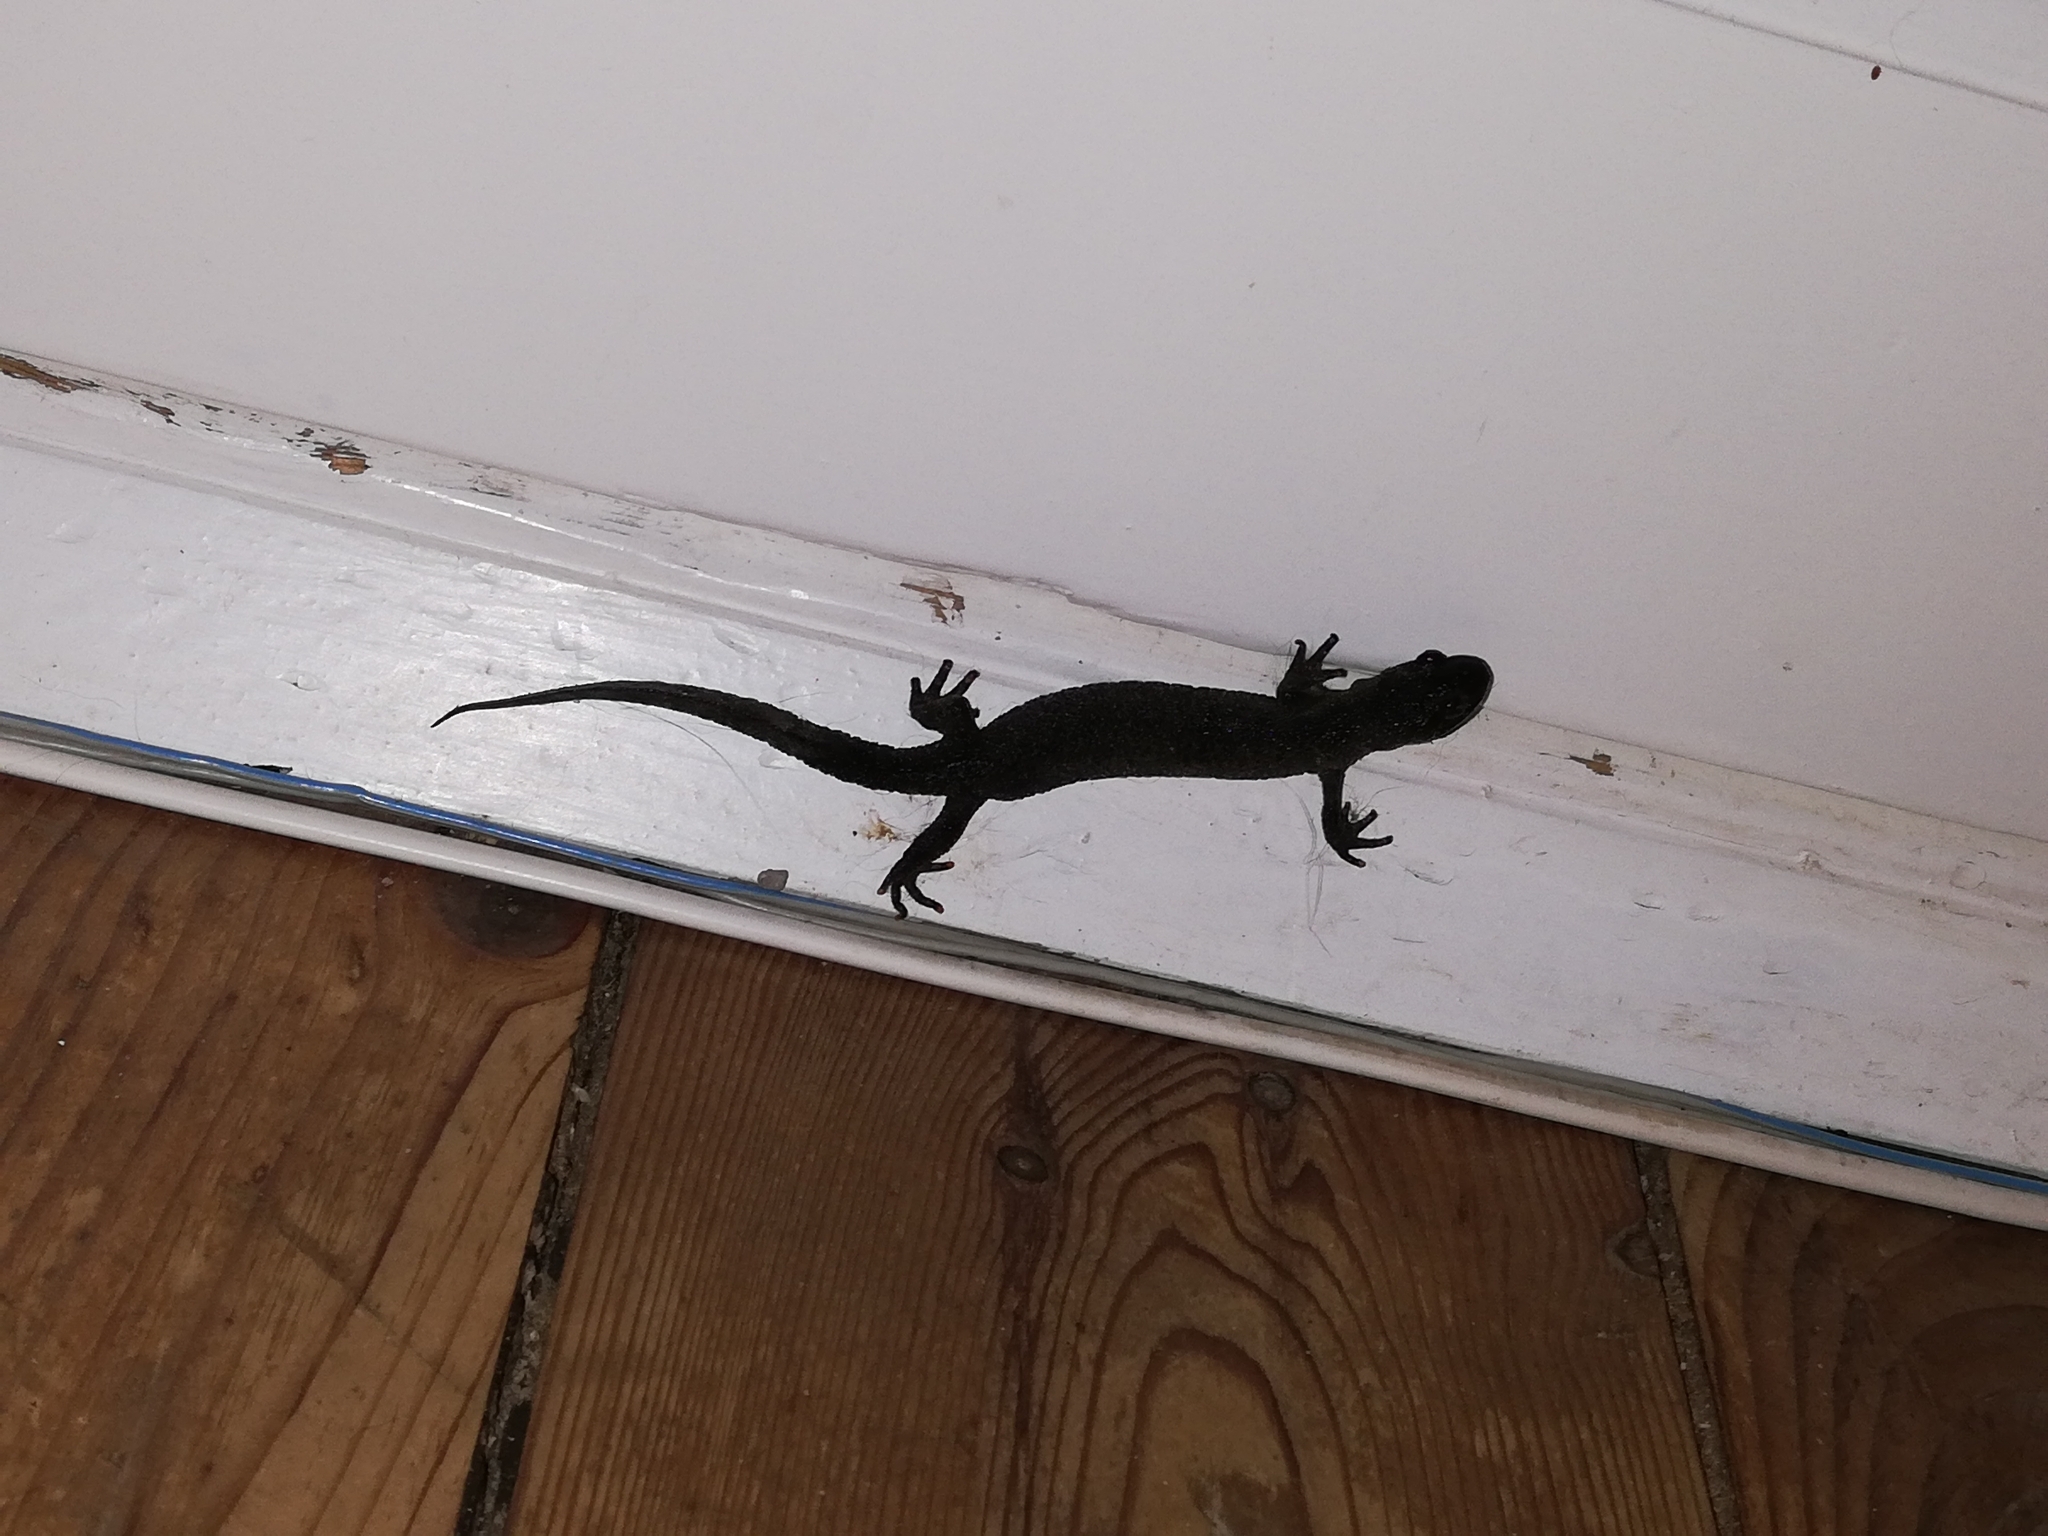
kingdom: Animalia
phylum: Chordata
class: Amphibia
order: Caudata
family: Salamandridae
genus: Triturus
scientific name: Triturus cristatus
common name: Crested newt
